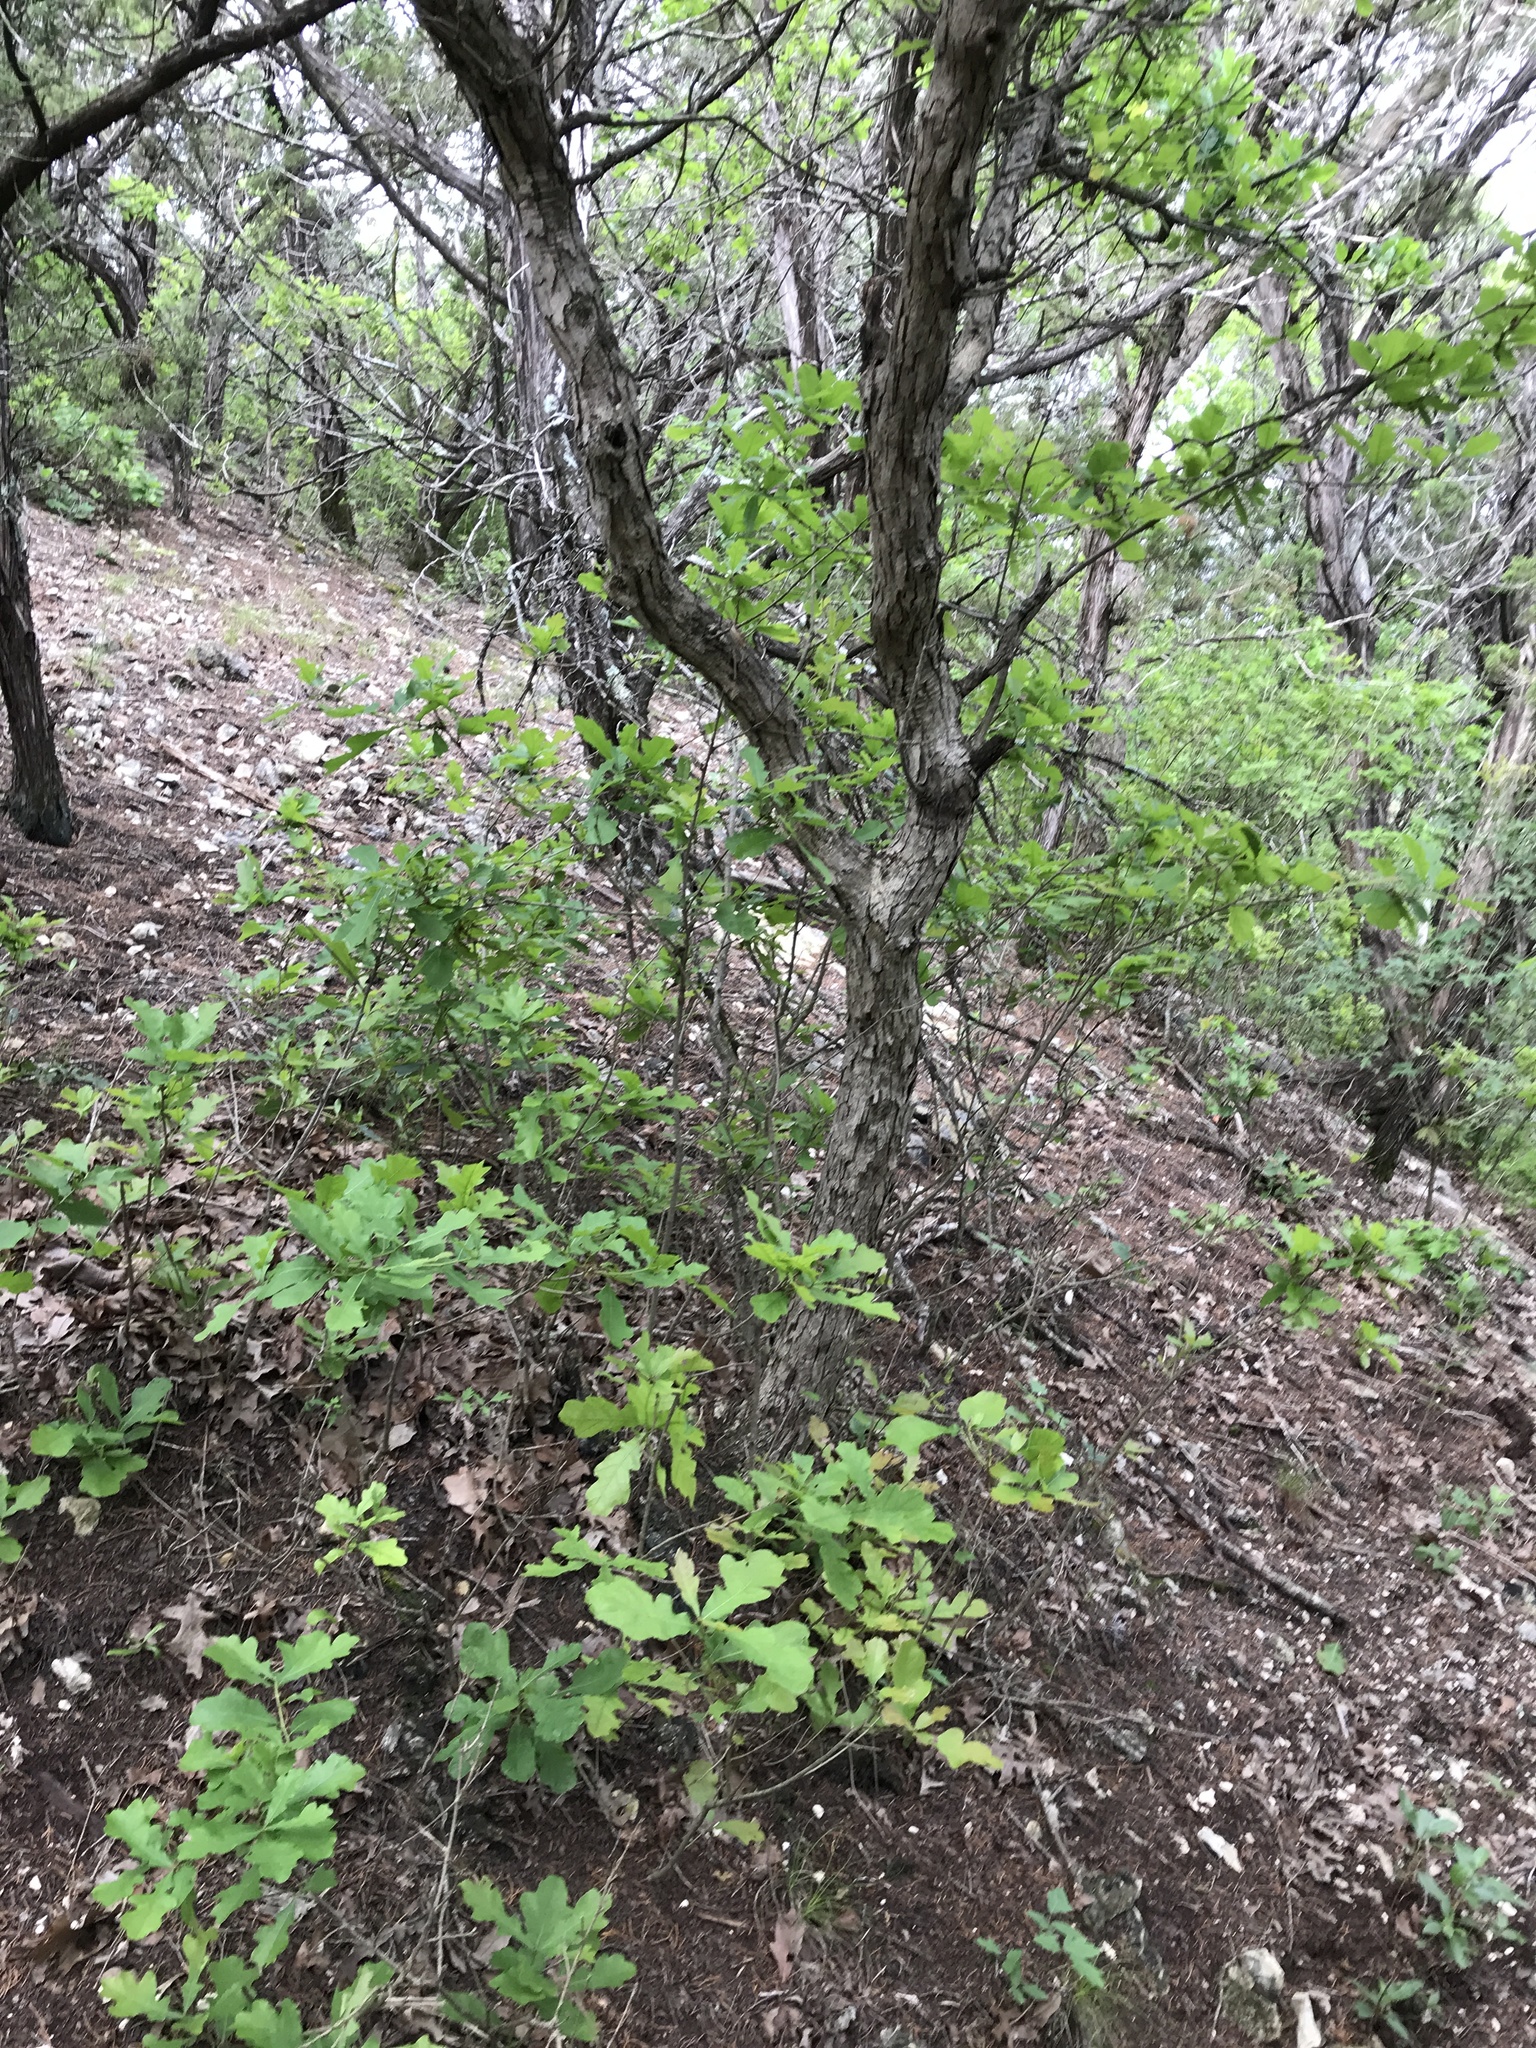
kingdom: Plantae
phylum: Tracheophyta
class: Magnoliopsida
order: Fagales
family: Fagaceae
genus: Quercus
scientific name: Quercus sinuata
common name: Durand oak
